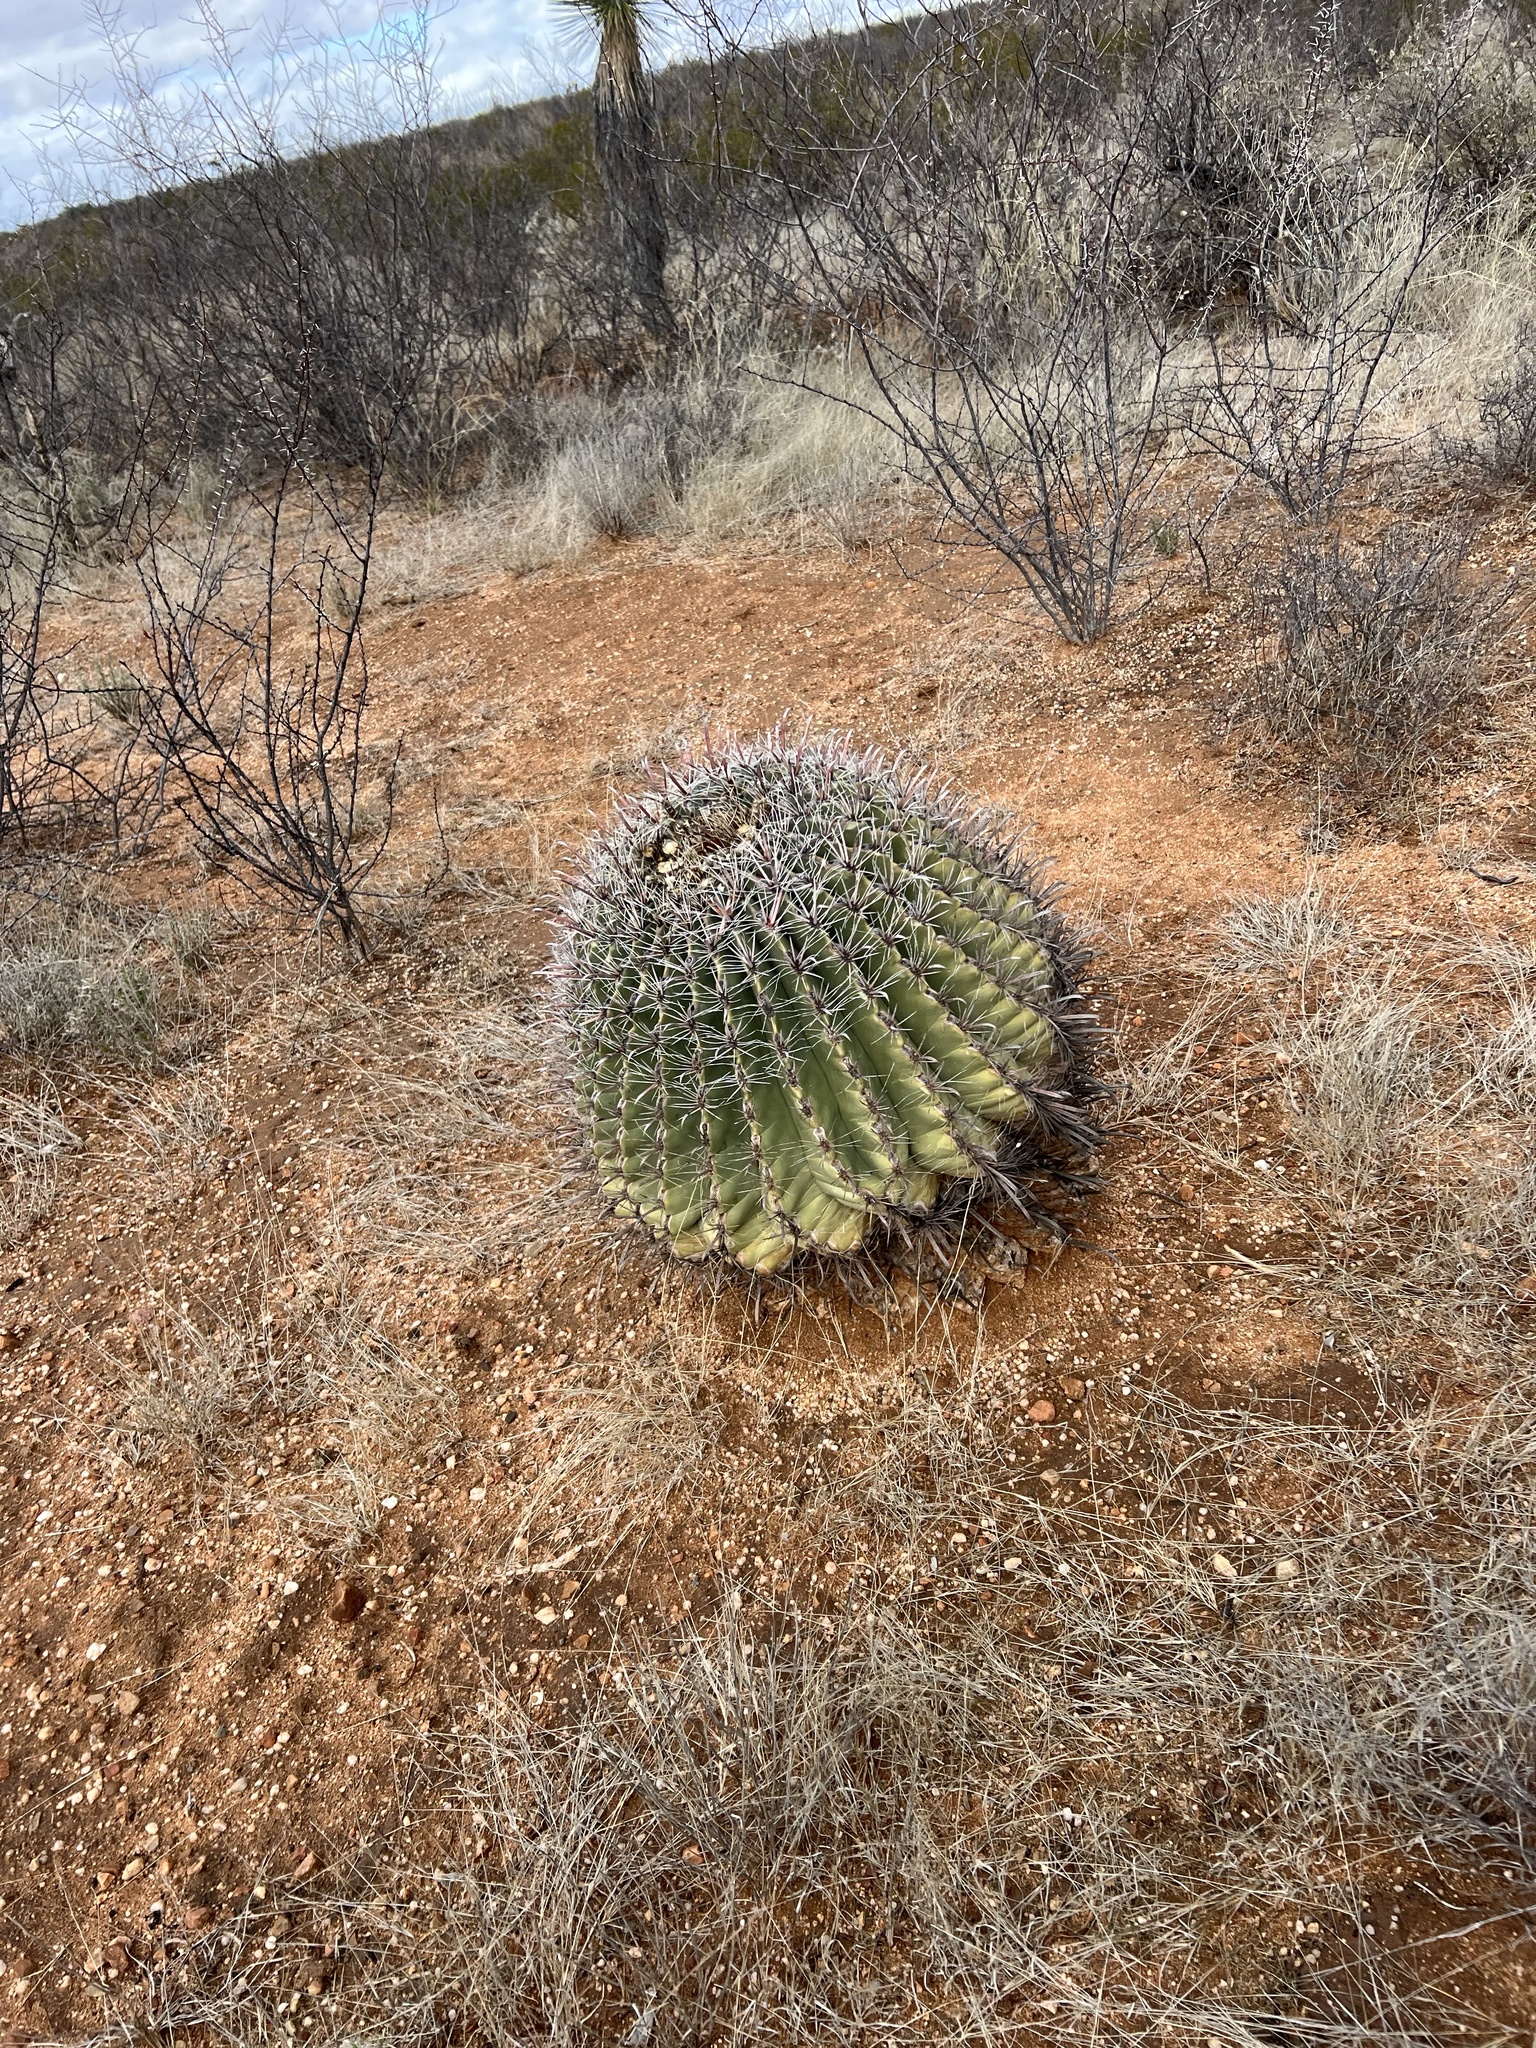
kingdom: Plantae
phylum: Tracheophyta
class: Magnoliopsida
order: Caryophyllales
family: Cactaceae
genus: Ferocactus
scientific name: Ferocactus wislizeni
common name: Candy barrel cactus
